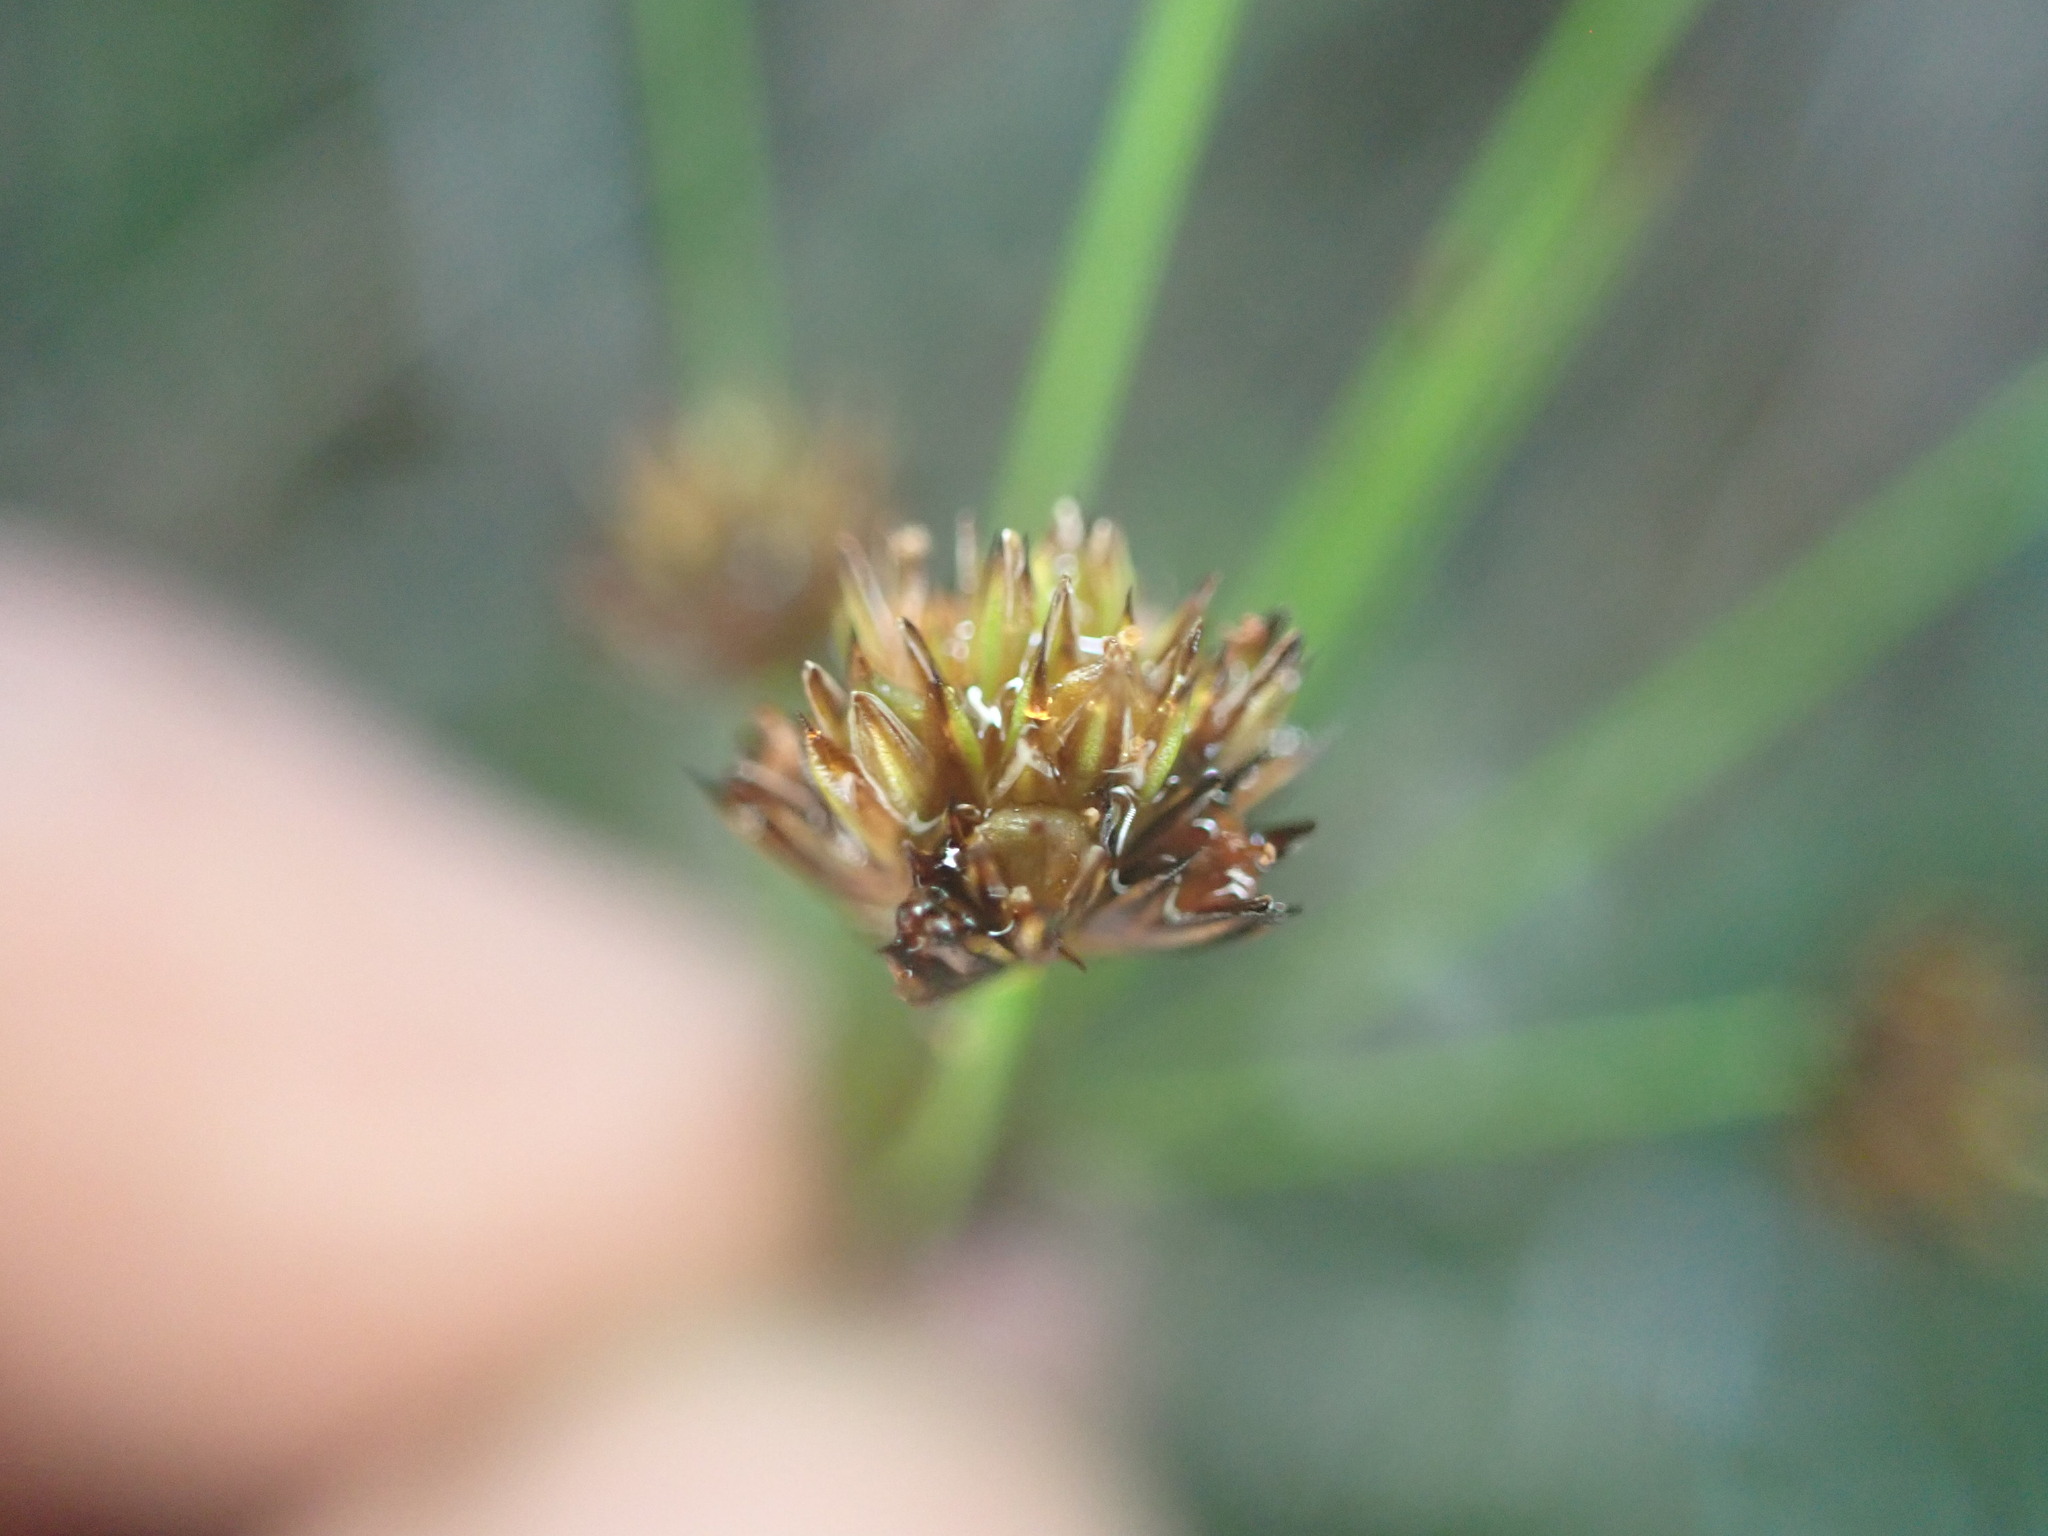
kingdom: Plantae
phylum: Tracheophyta
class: Liliopsida
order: Poales
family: Juncaceae
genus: Juncus
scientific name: Juncus planifolius
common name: Broadleaf rush
